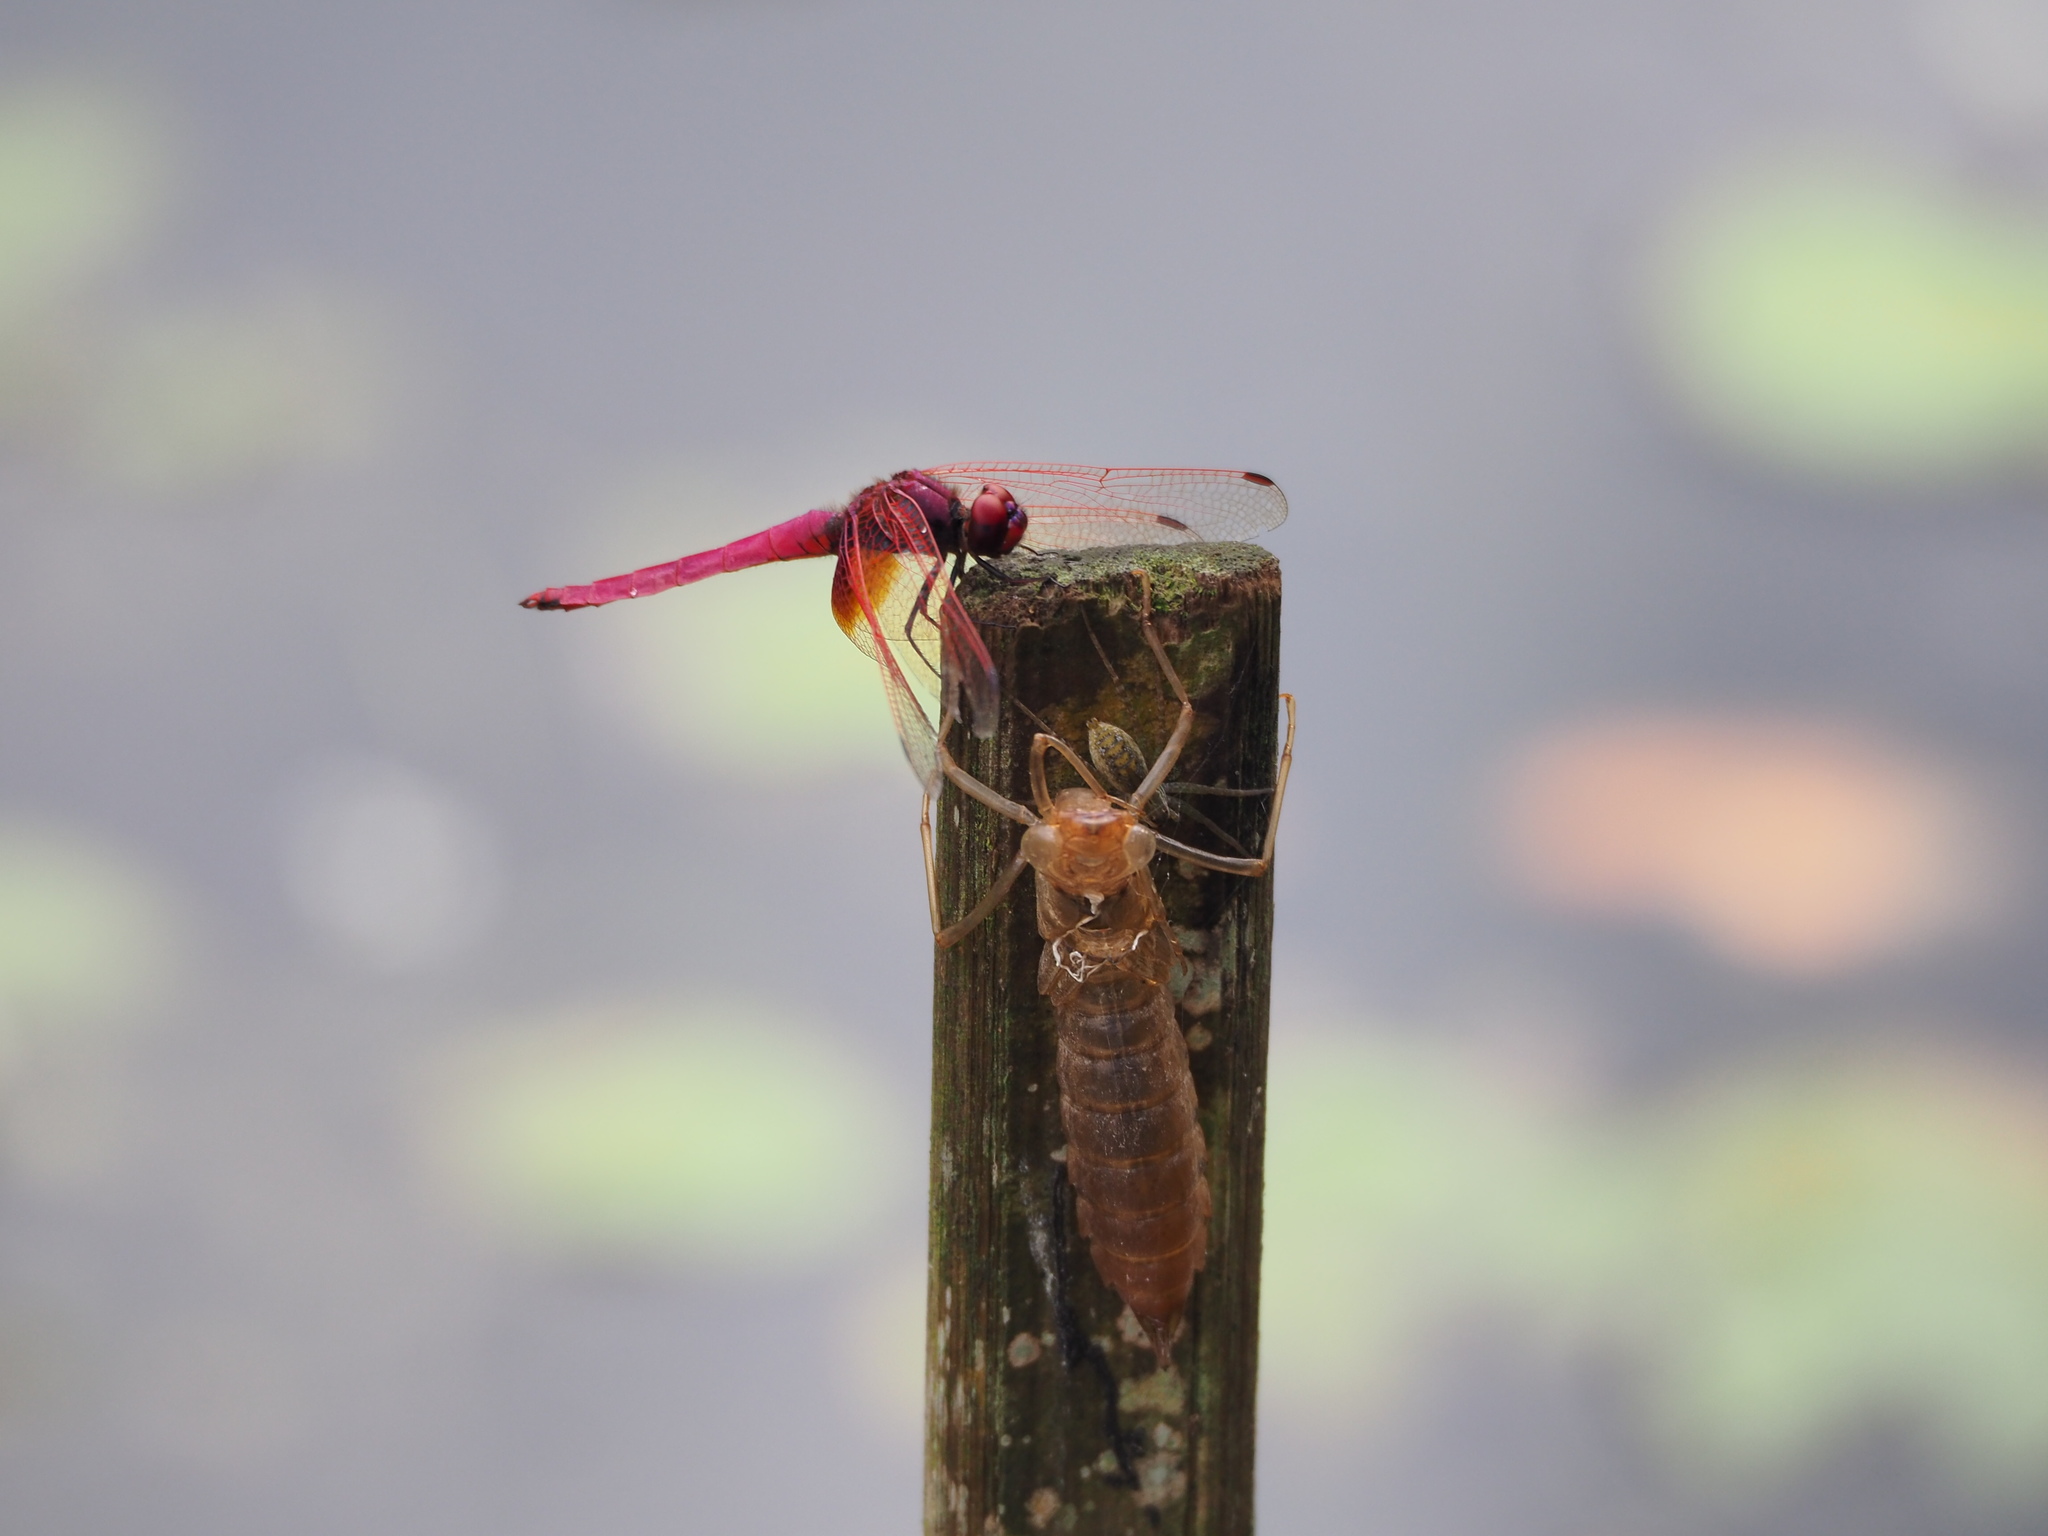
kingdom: Animalia
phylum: Arthropoda
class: Insecta
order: Odonata
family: Libellulidae
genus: Trithemis
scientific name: Trithemis aurora
